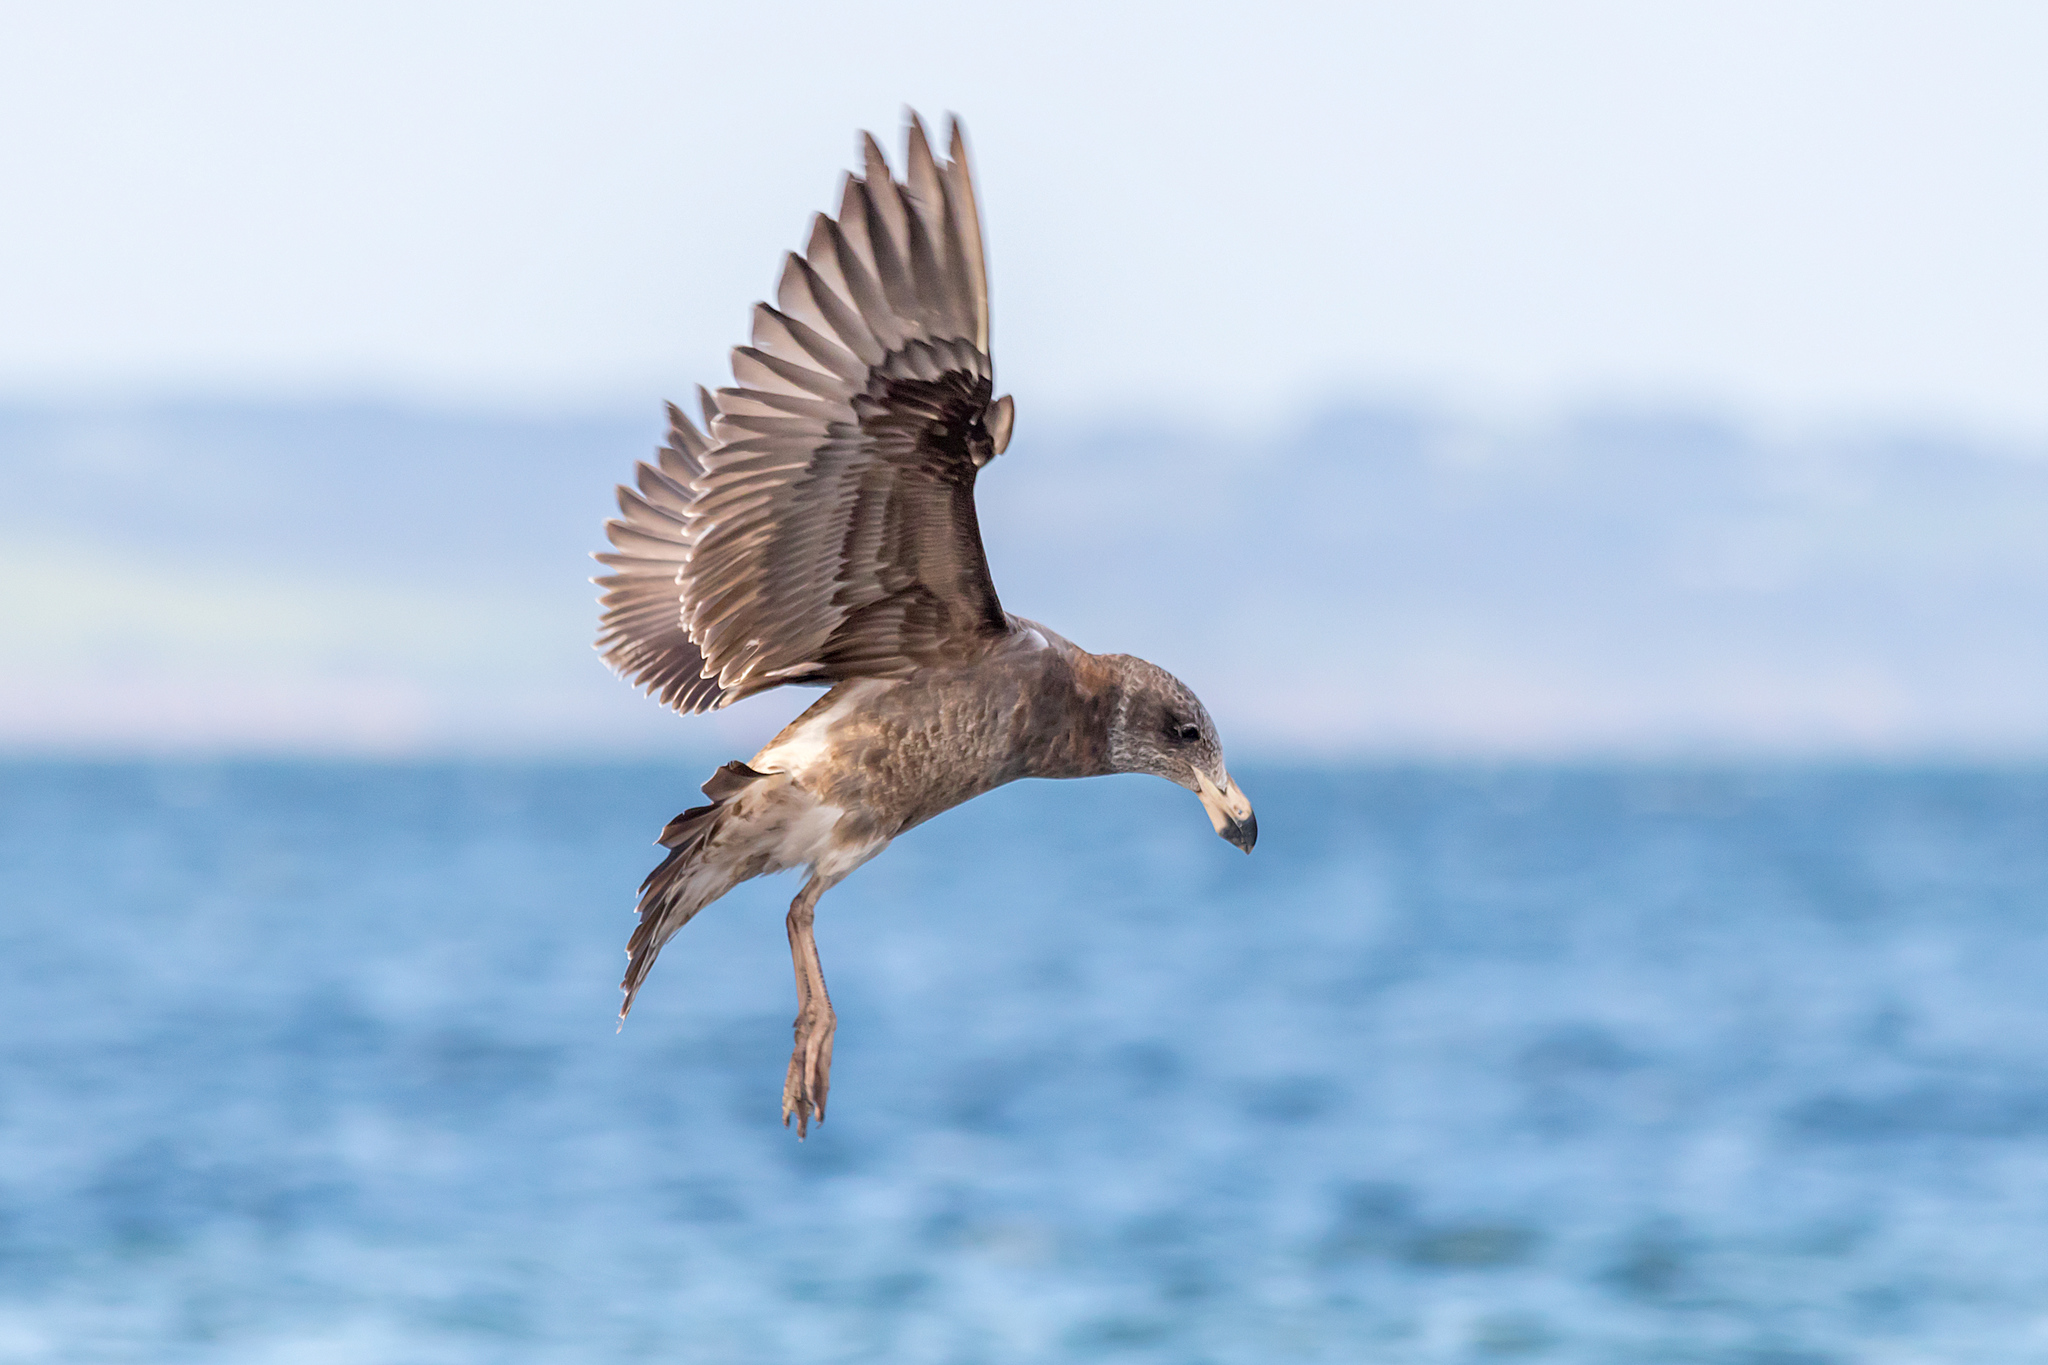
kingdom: Animalia
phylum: Chordata
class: Aves
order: Charadriiformes
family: Laridae
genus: Larus
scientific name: Larus pacificus
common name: Pacific gull
